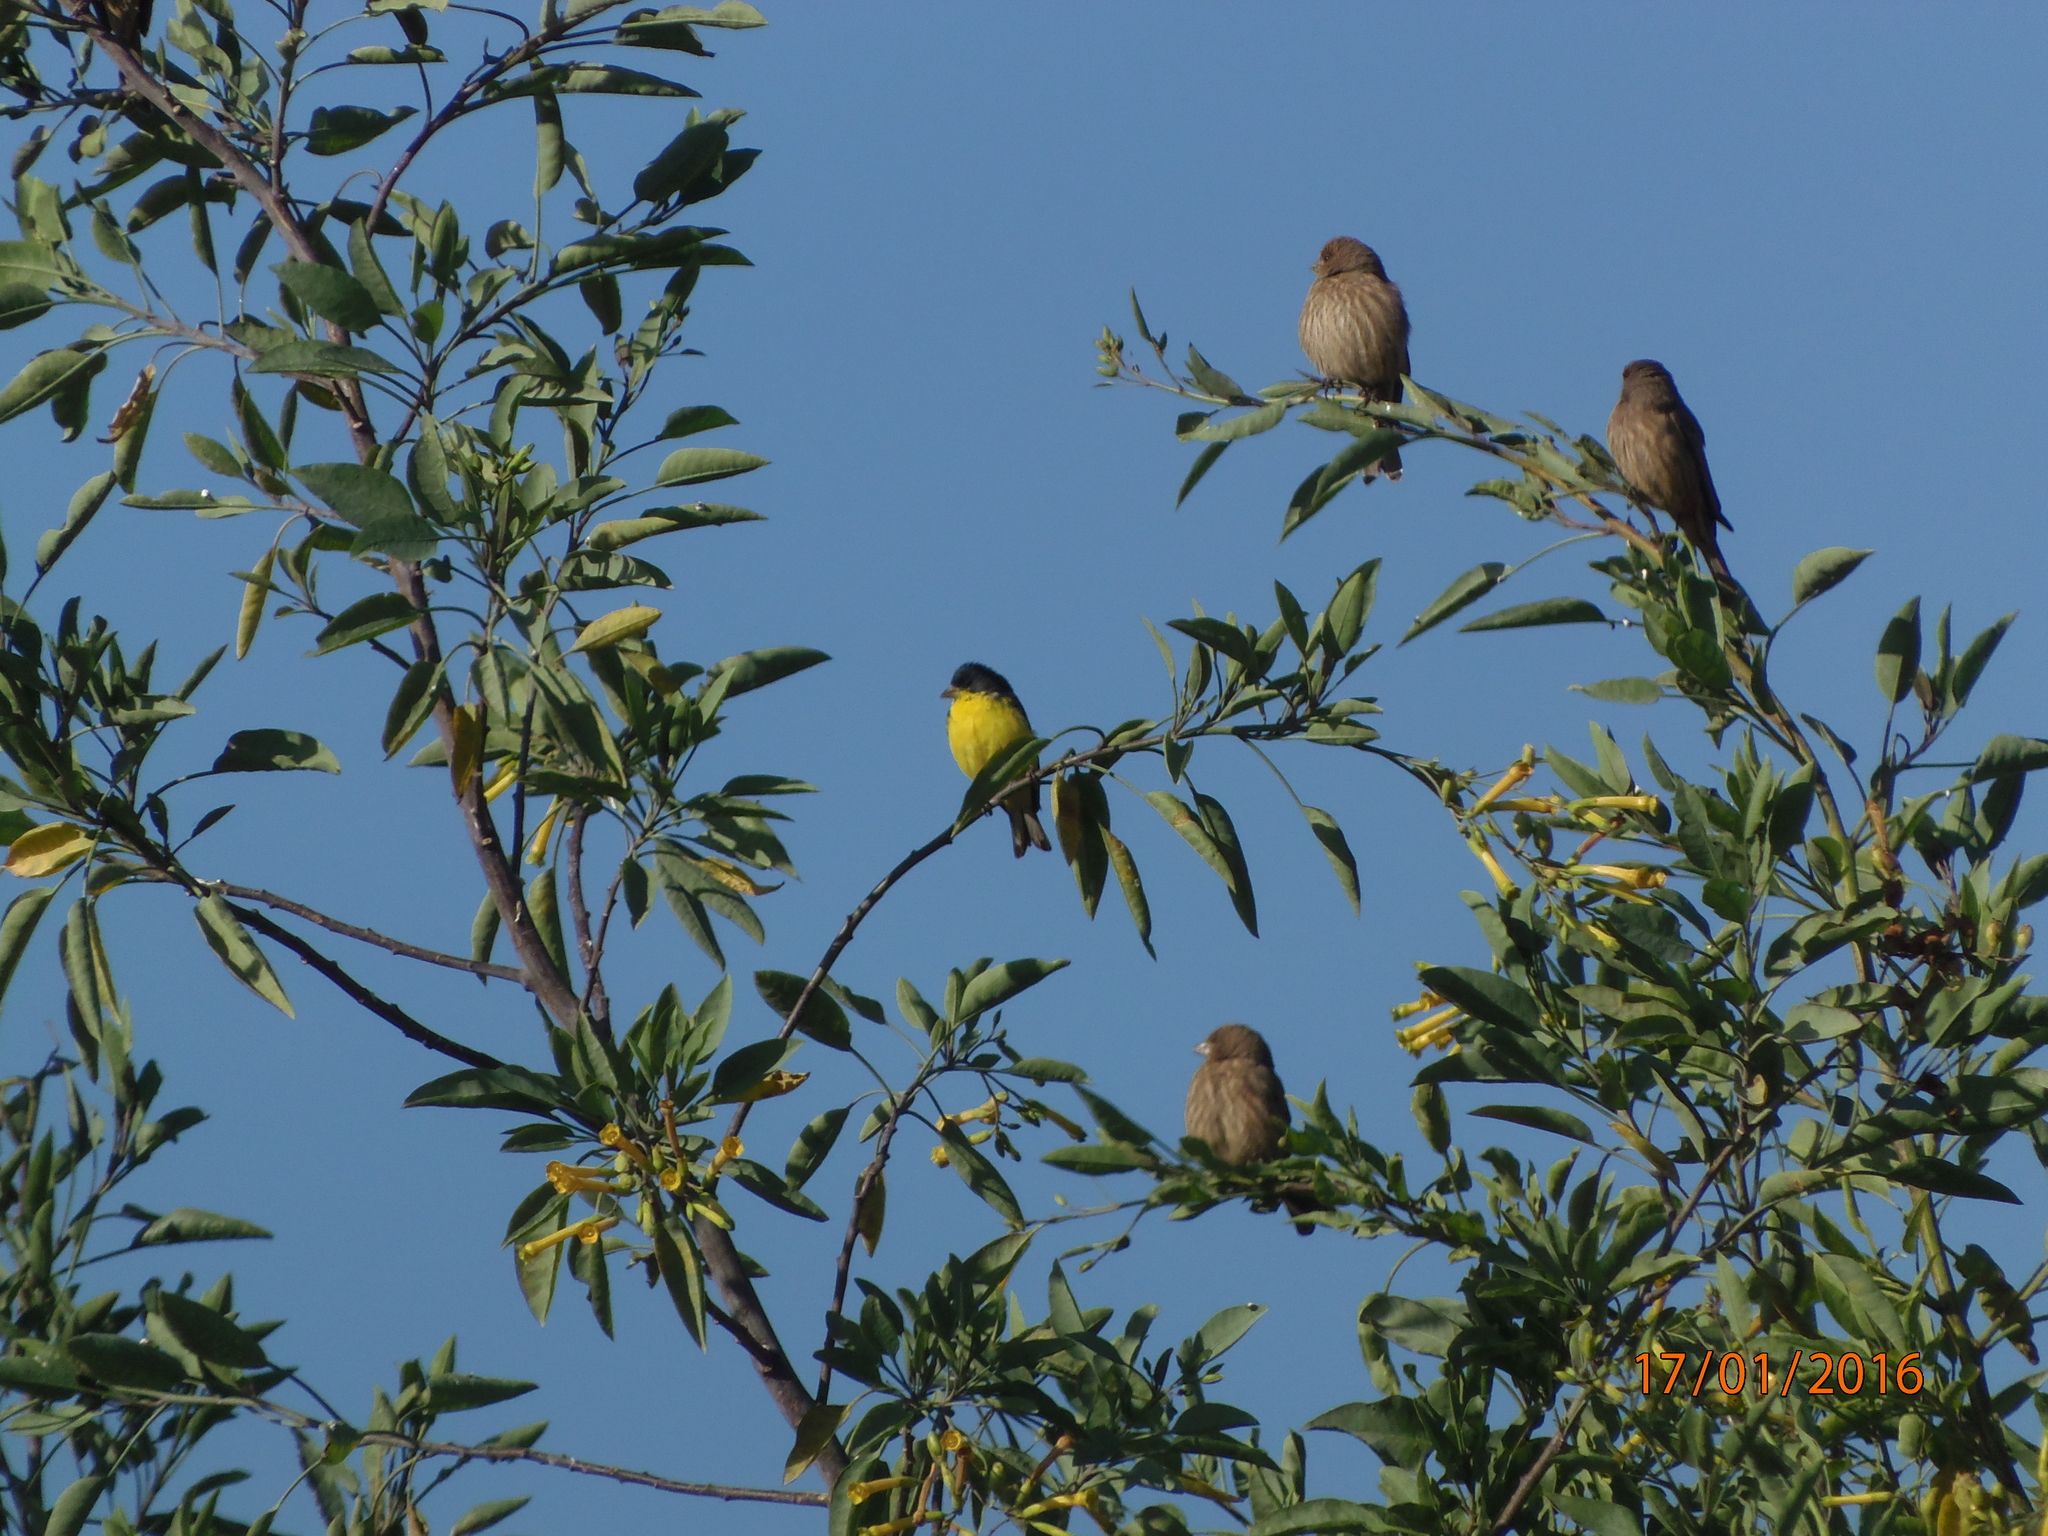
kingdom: Animalia
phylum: Chordata
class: Aves
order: Passeriformes
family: Fringillidae
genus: Spinus
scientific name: Spinus psaltria
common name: Lesser goldfinch
